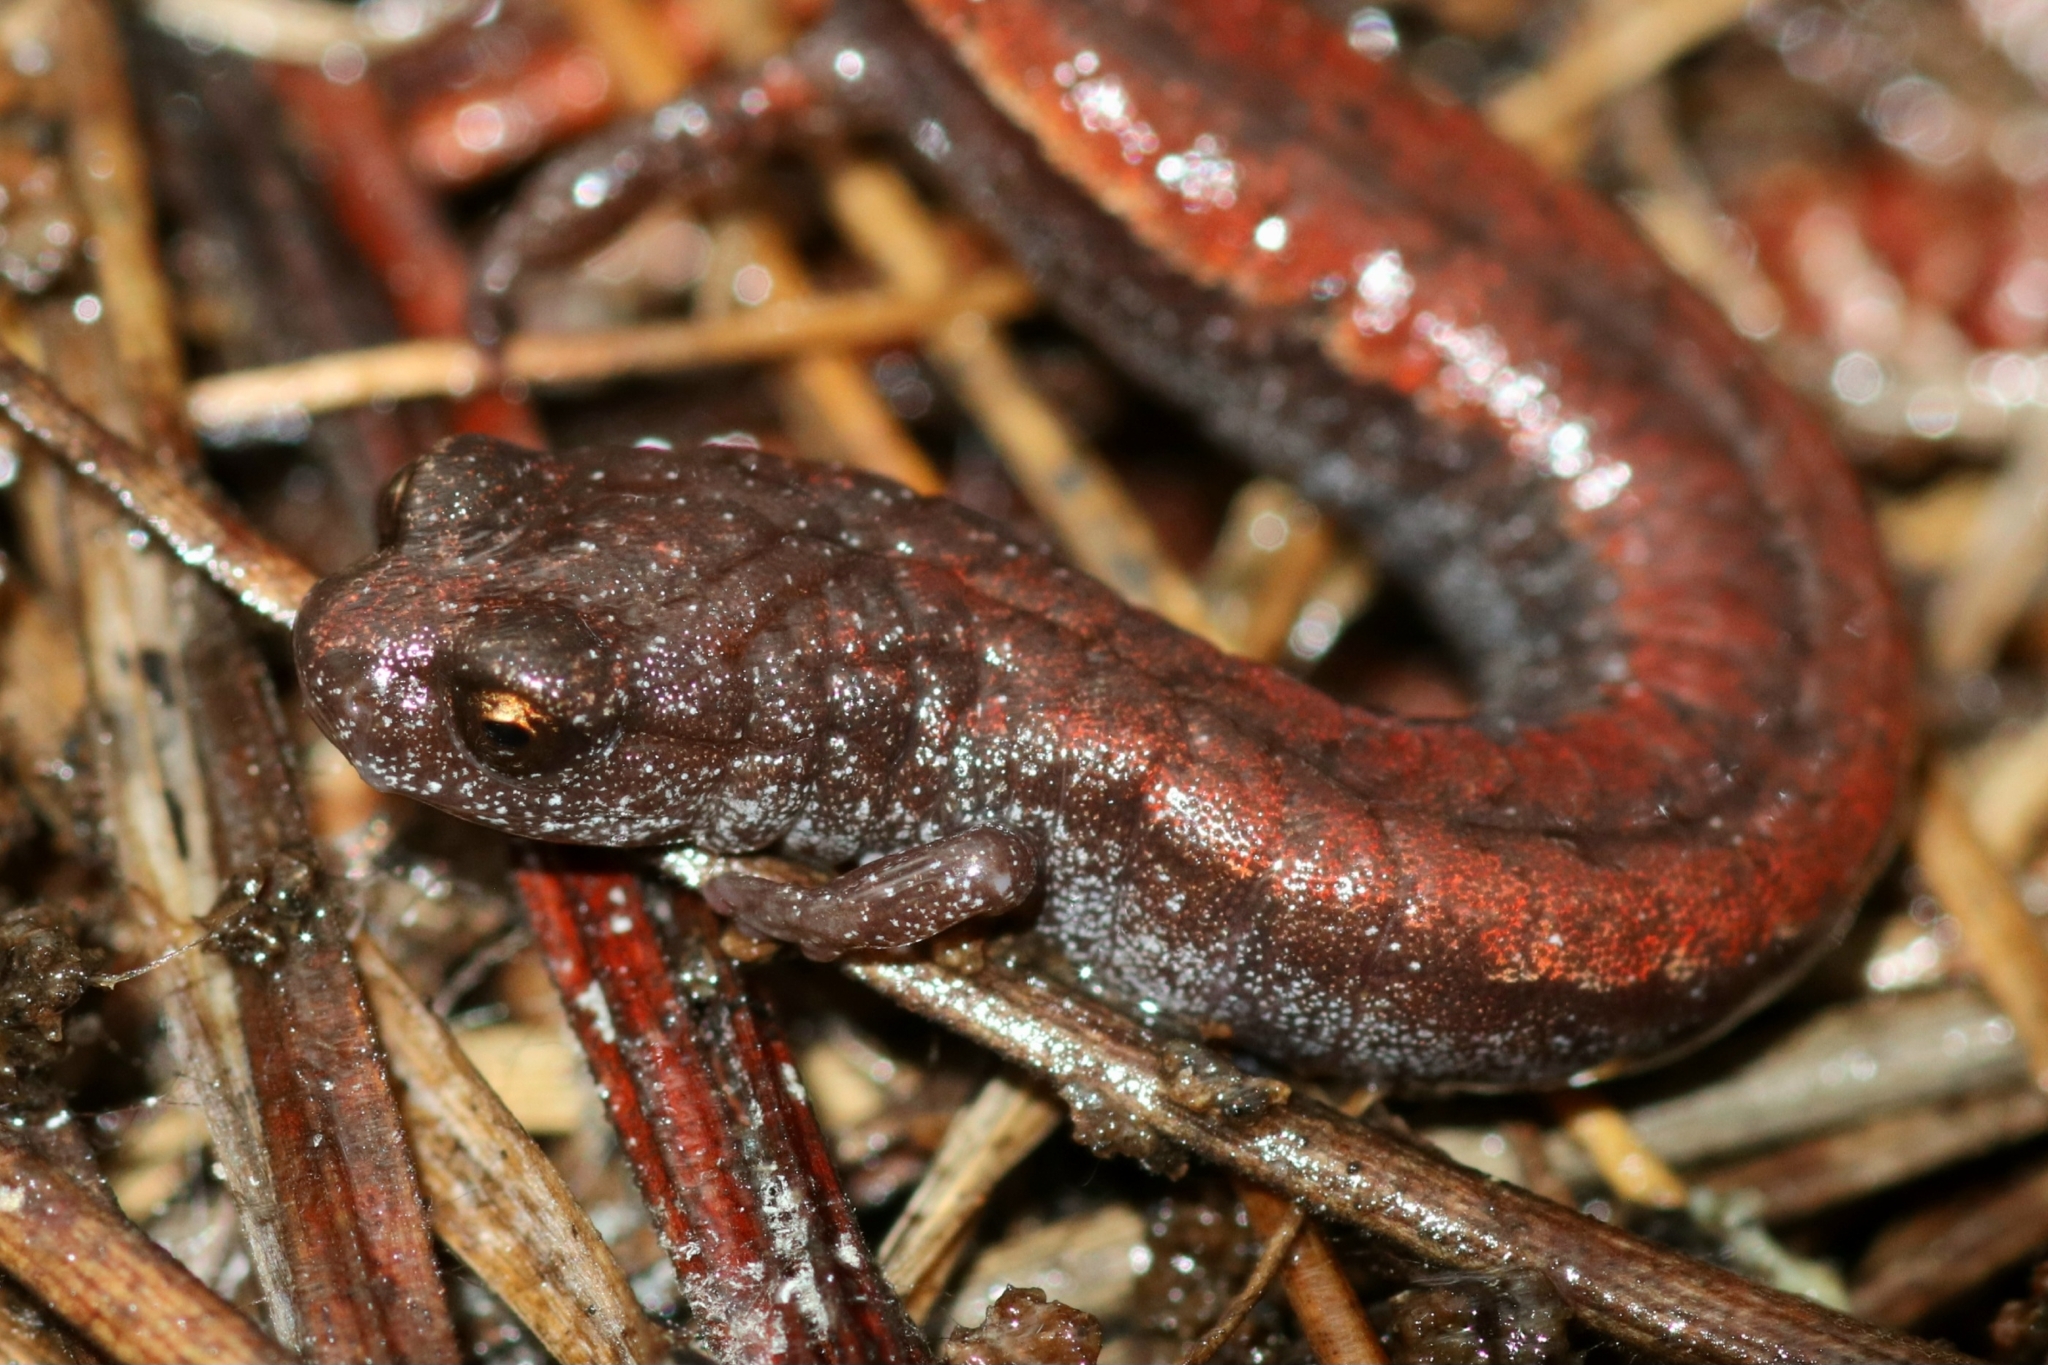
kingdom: Animalia
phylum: Chordata
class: Amphibia
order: Caudata
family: Plethodontidae
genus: Batrachoseps
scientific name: Batrachoseps luciae
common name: Santa lucia mountains slender salamander
